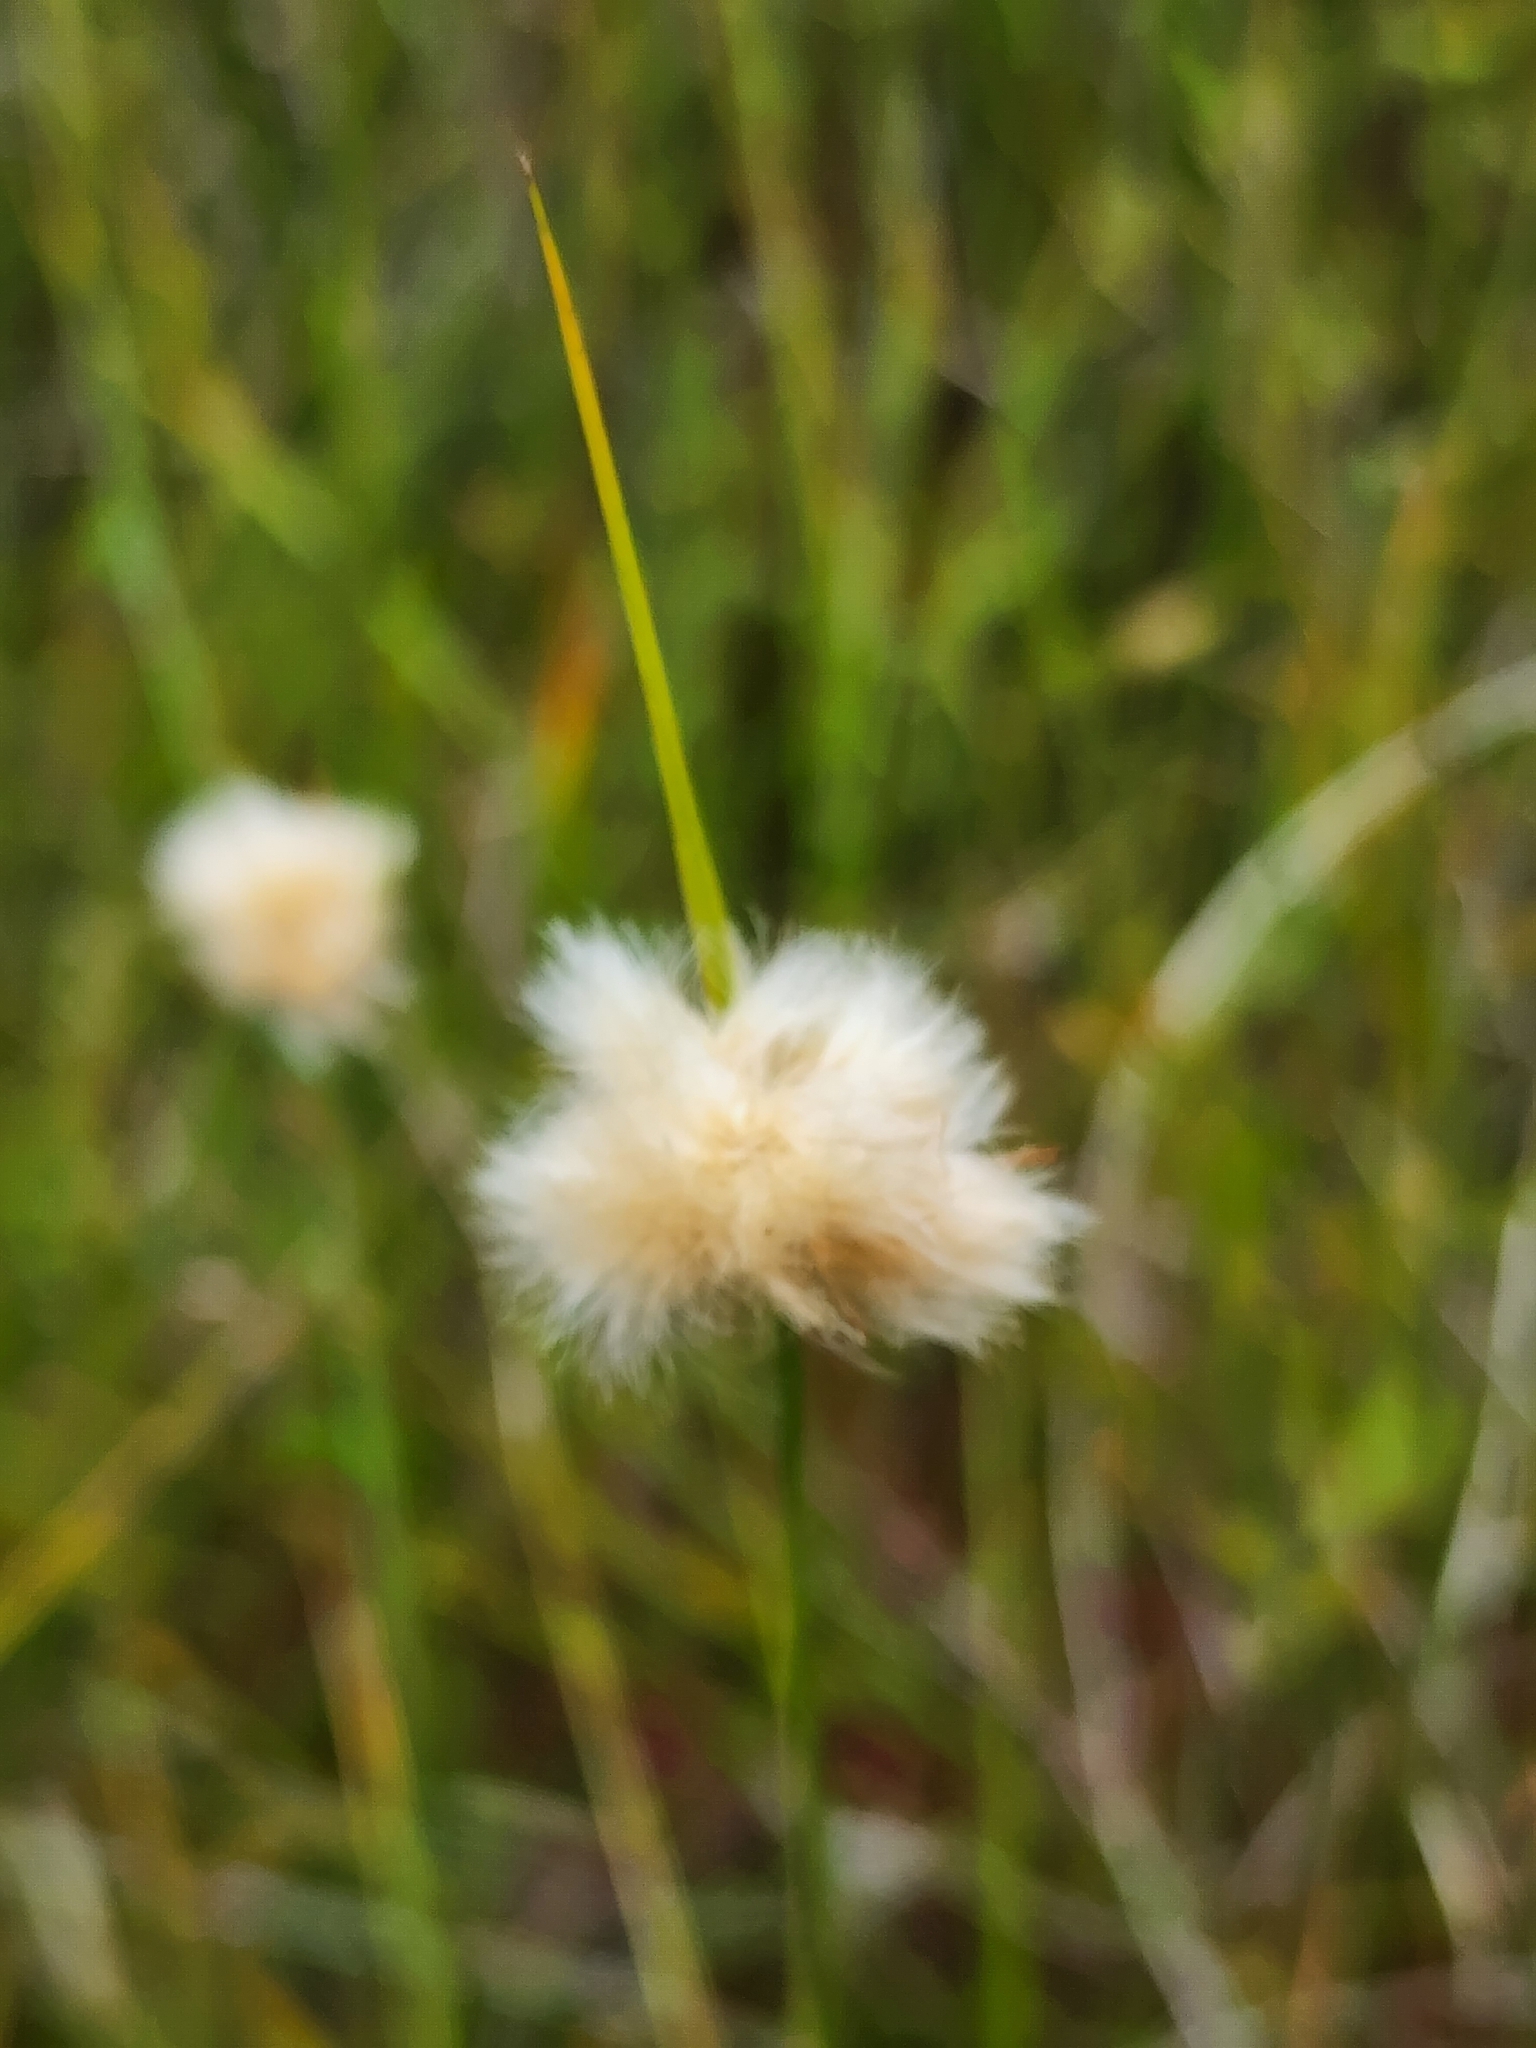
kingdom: Plantae
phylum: Tracheophyta
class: Liliopsida
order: Poales
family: Cyperaceae
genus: Eriophorum
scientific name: Eriophorum virginicum
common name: Tawny cottongrass
